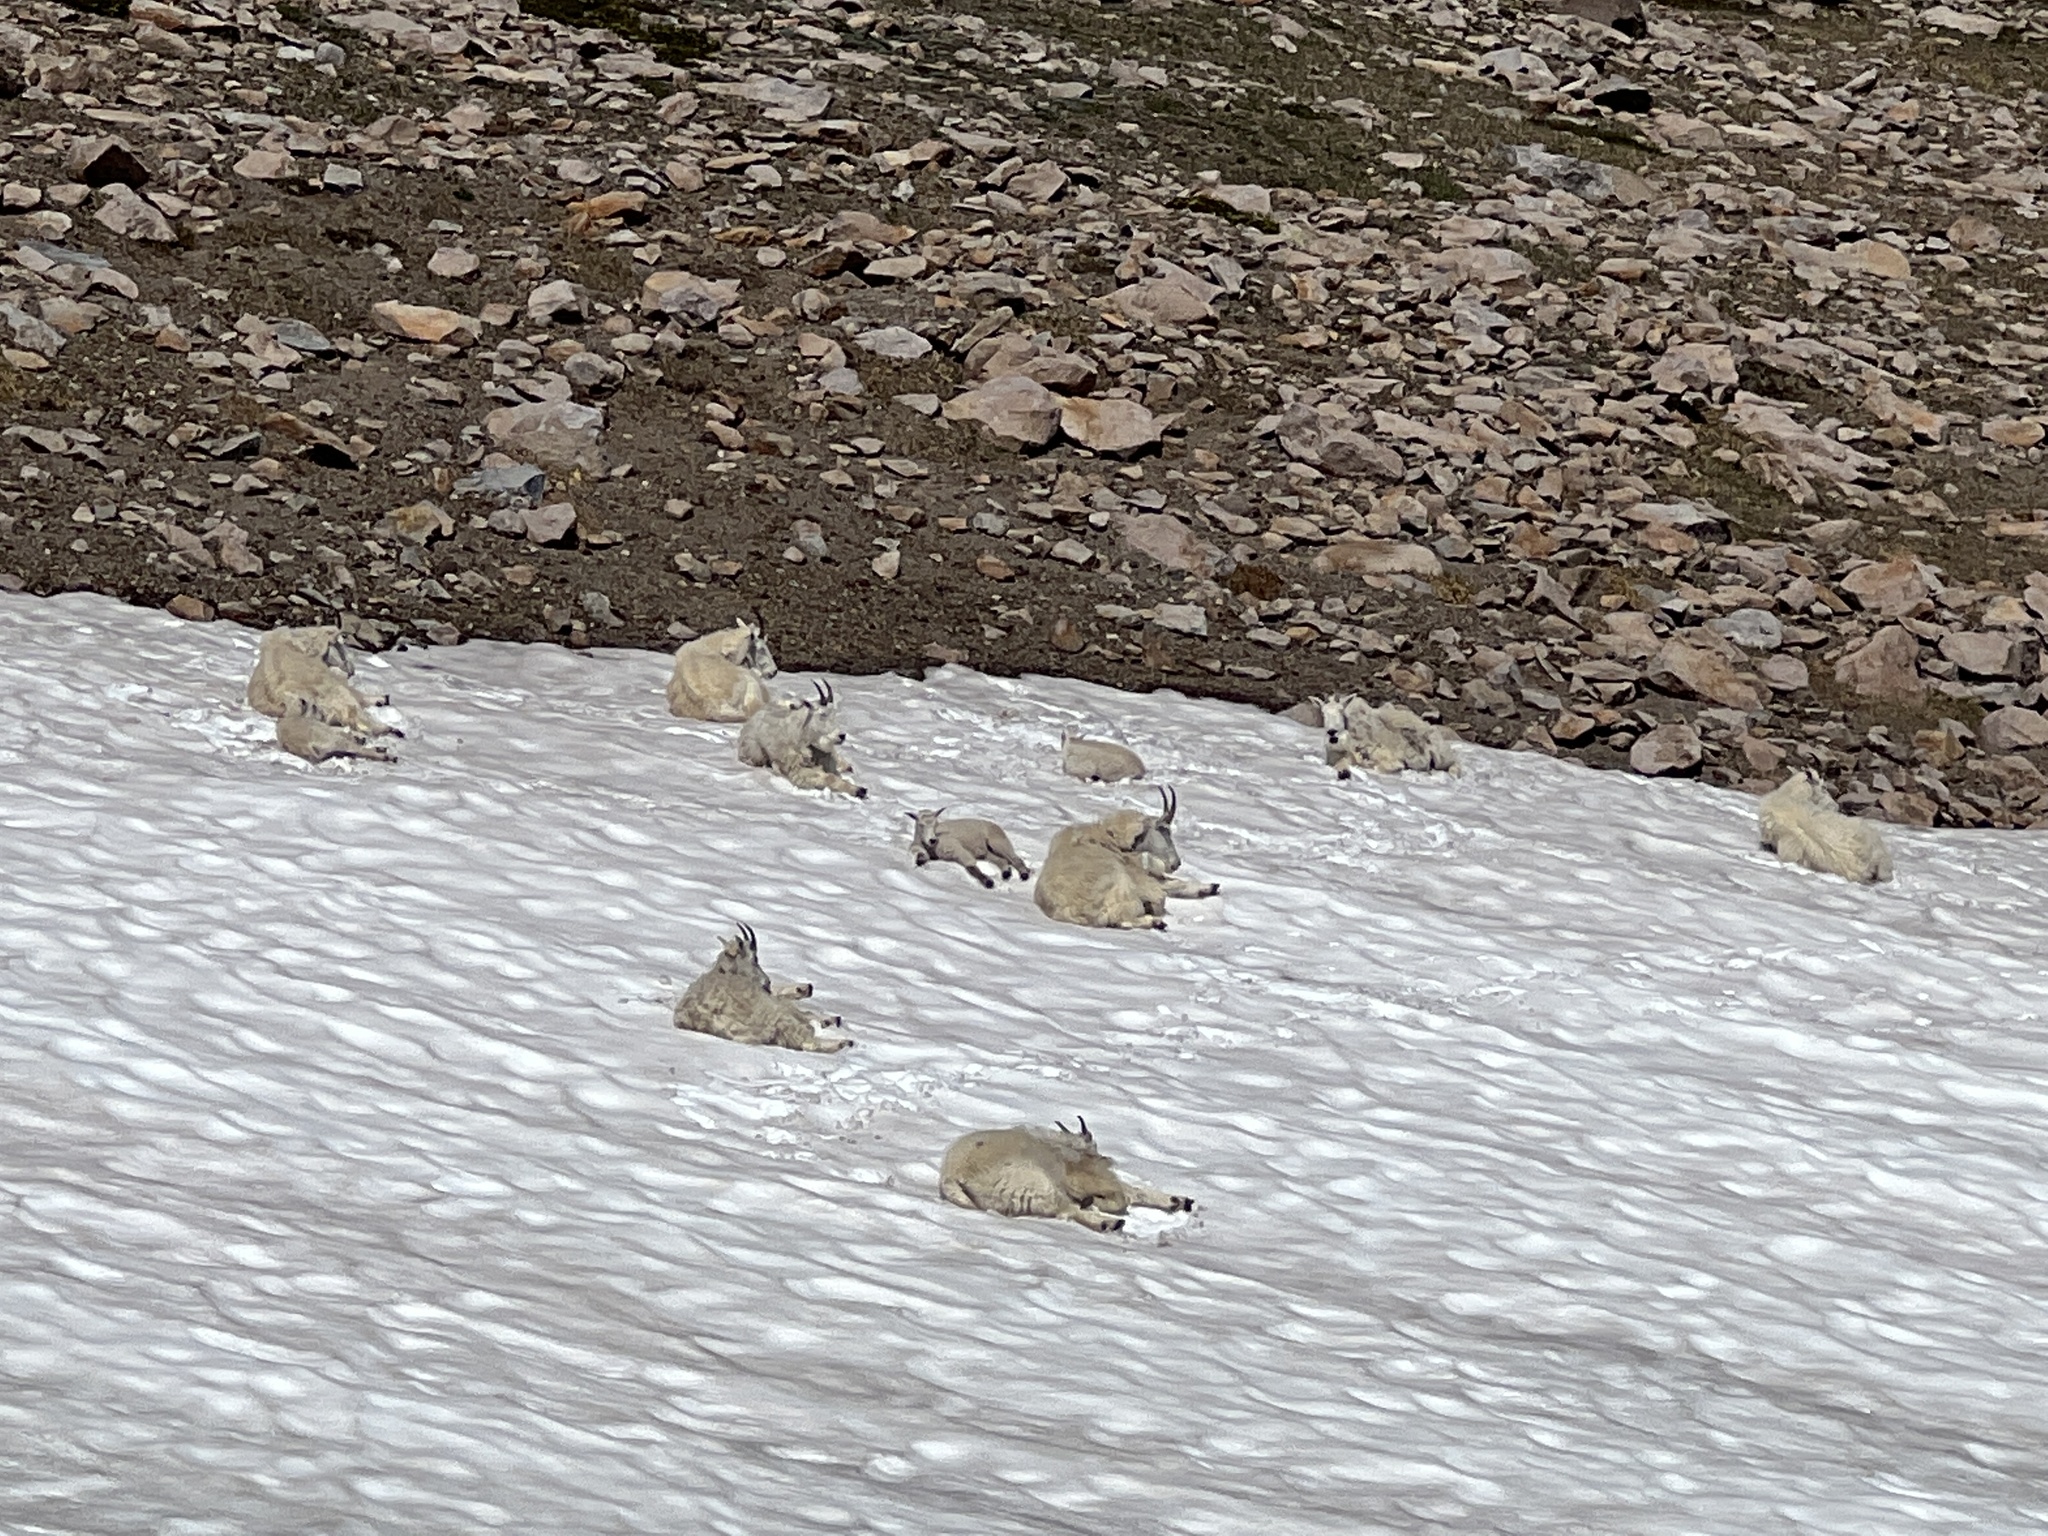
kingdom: Animalia
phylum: Chordata
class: Mammalia
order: Artiodactyla
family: Bovidae
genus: Oreamnos
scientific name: Oreamnos americanus
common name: Mountain goat
